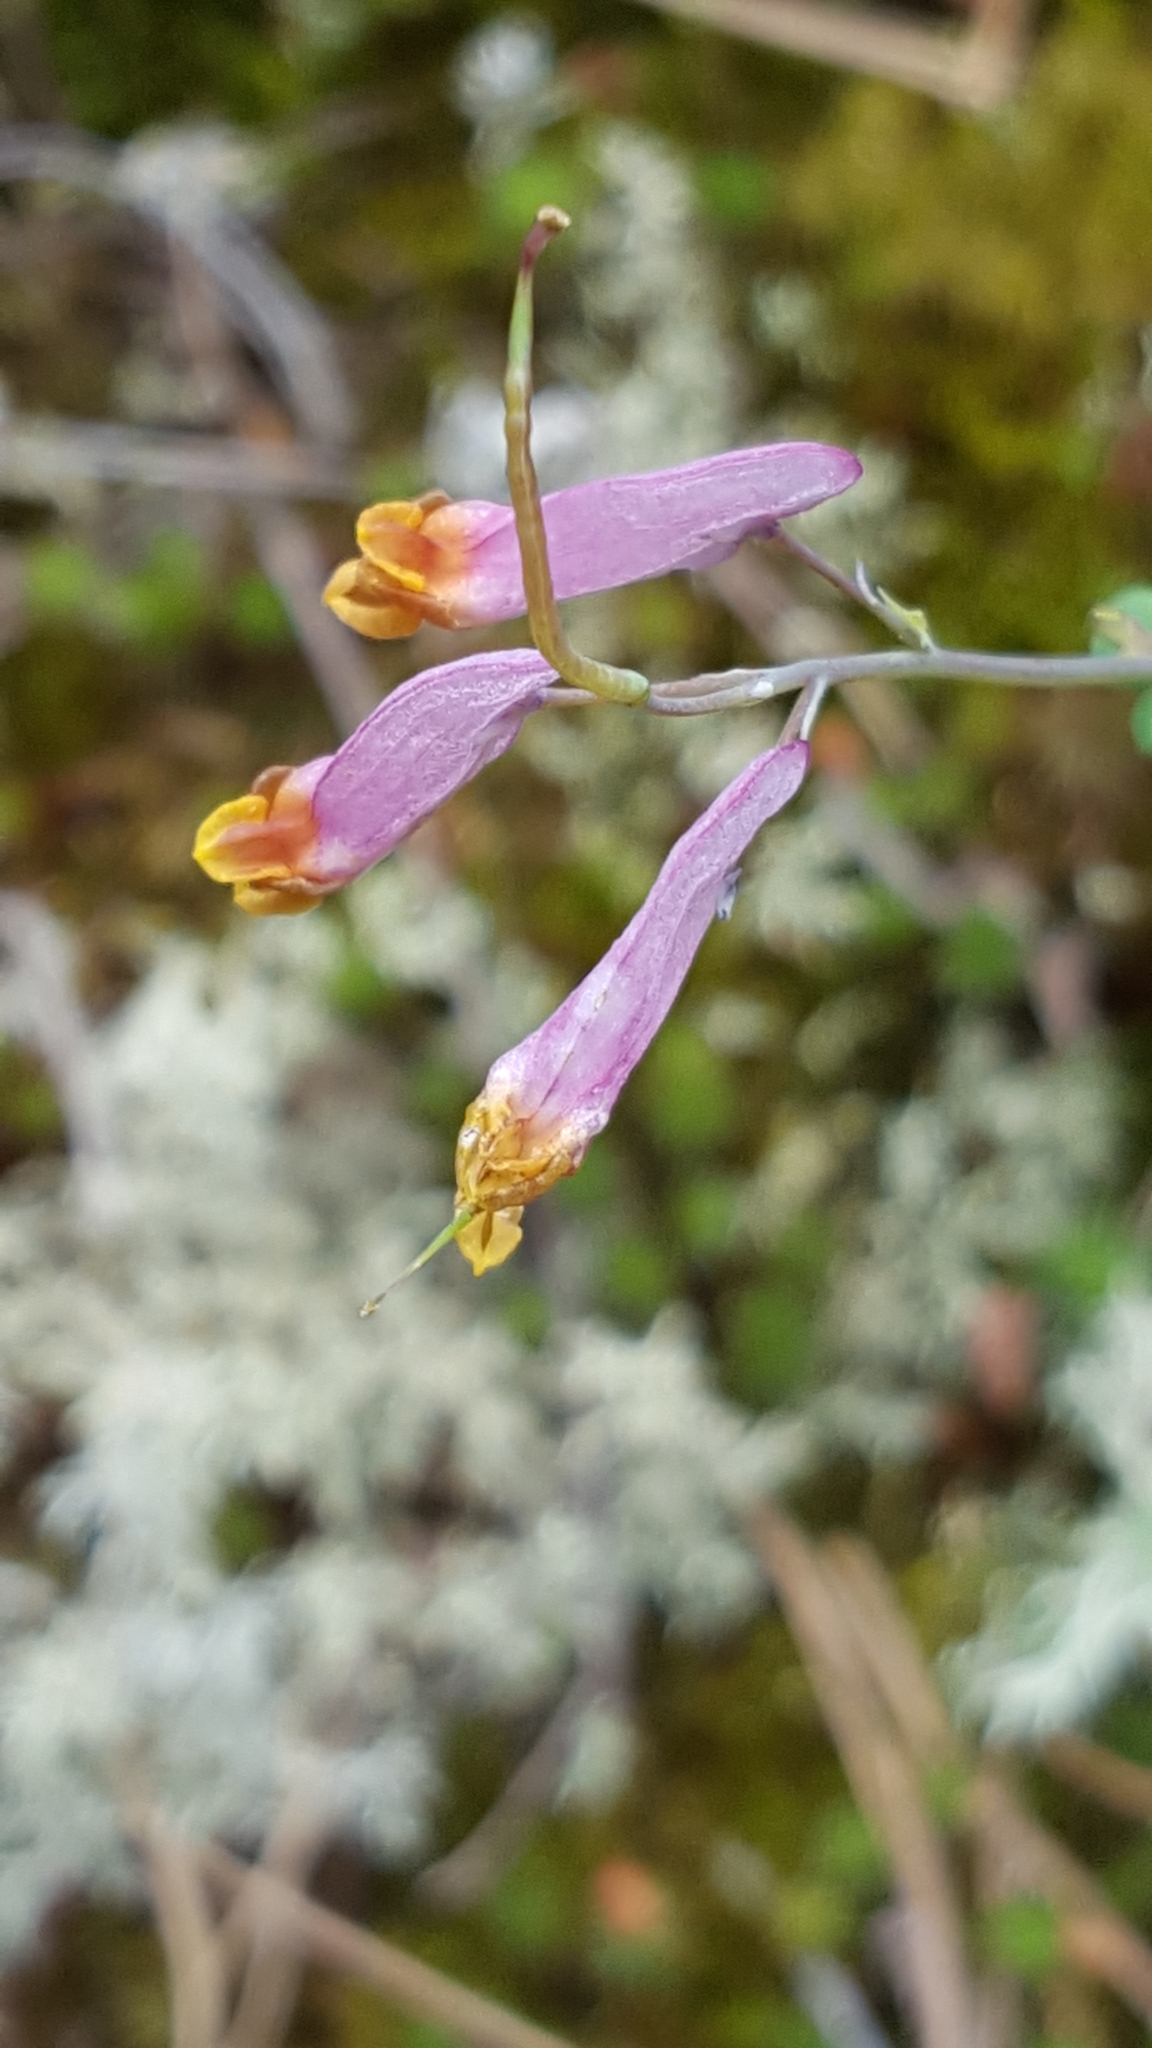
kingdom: Plantae
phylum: Tracheophyta
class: Magnoliopsida
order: Ranunculales
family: Papaveraceae
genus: Capnoides
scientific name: Capnoides sempervirens
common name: Rock harlequin
